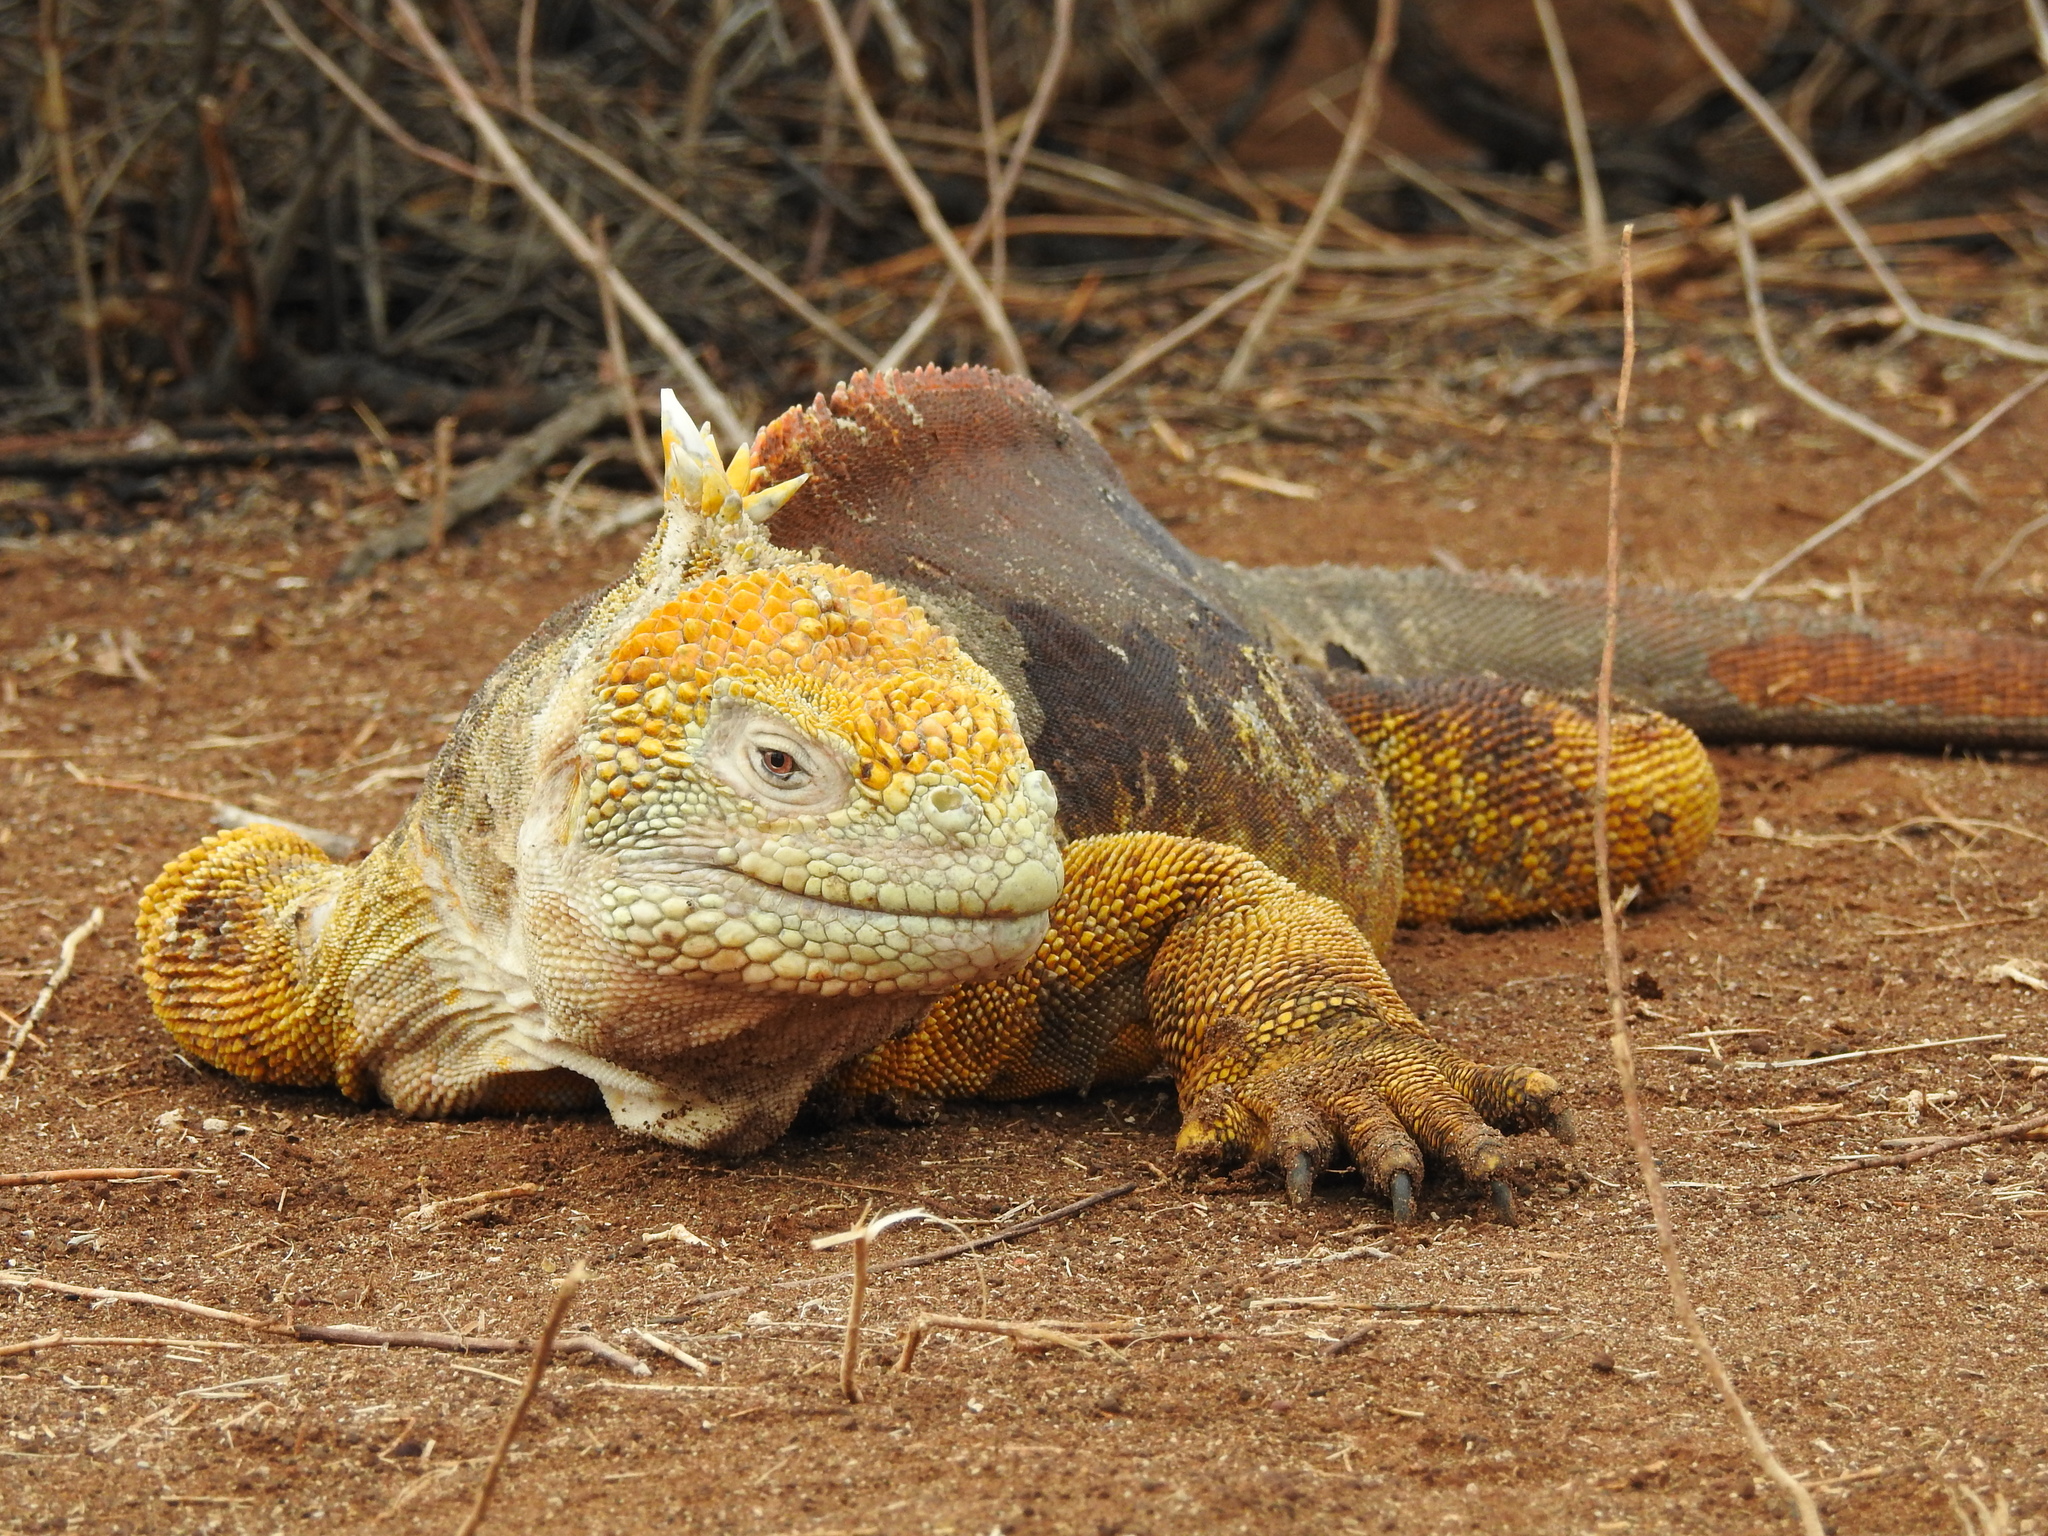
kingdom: Animalia
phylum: Chordata
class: Squamata
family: Iguanidae
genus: Conolophus
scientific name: Conolophus subcristatus
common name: Galapagos land iguana
